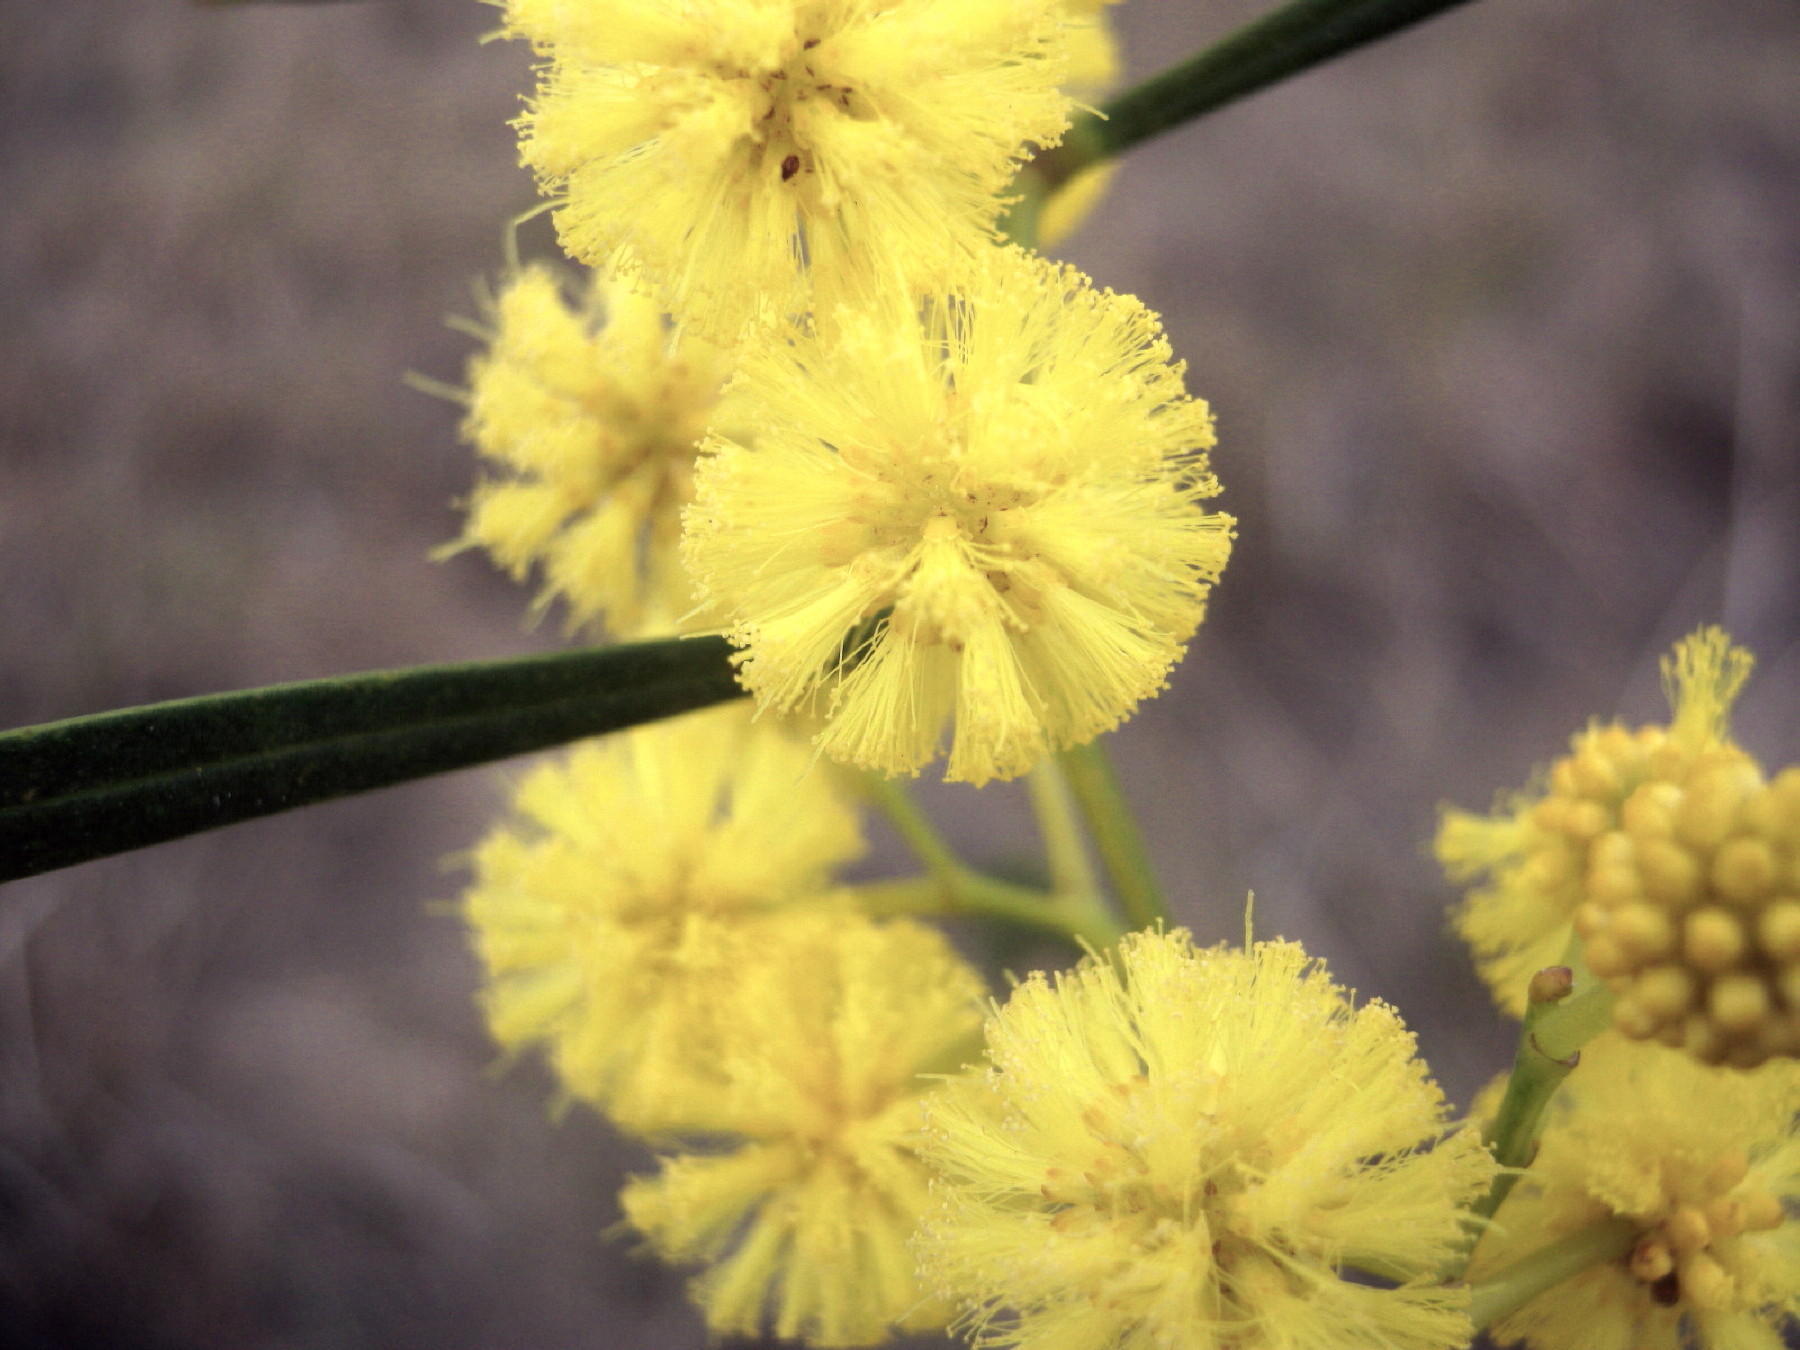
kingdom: Plantae
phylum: Tracheophyta
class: Magnoliopsida
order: Fabales
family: Fabaceae
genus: Acacia
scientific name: Acacia saligna
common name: Orange wattle
